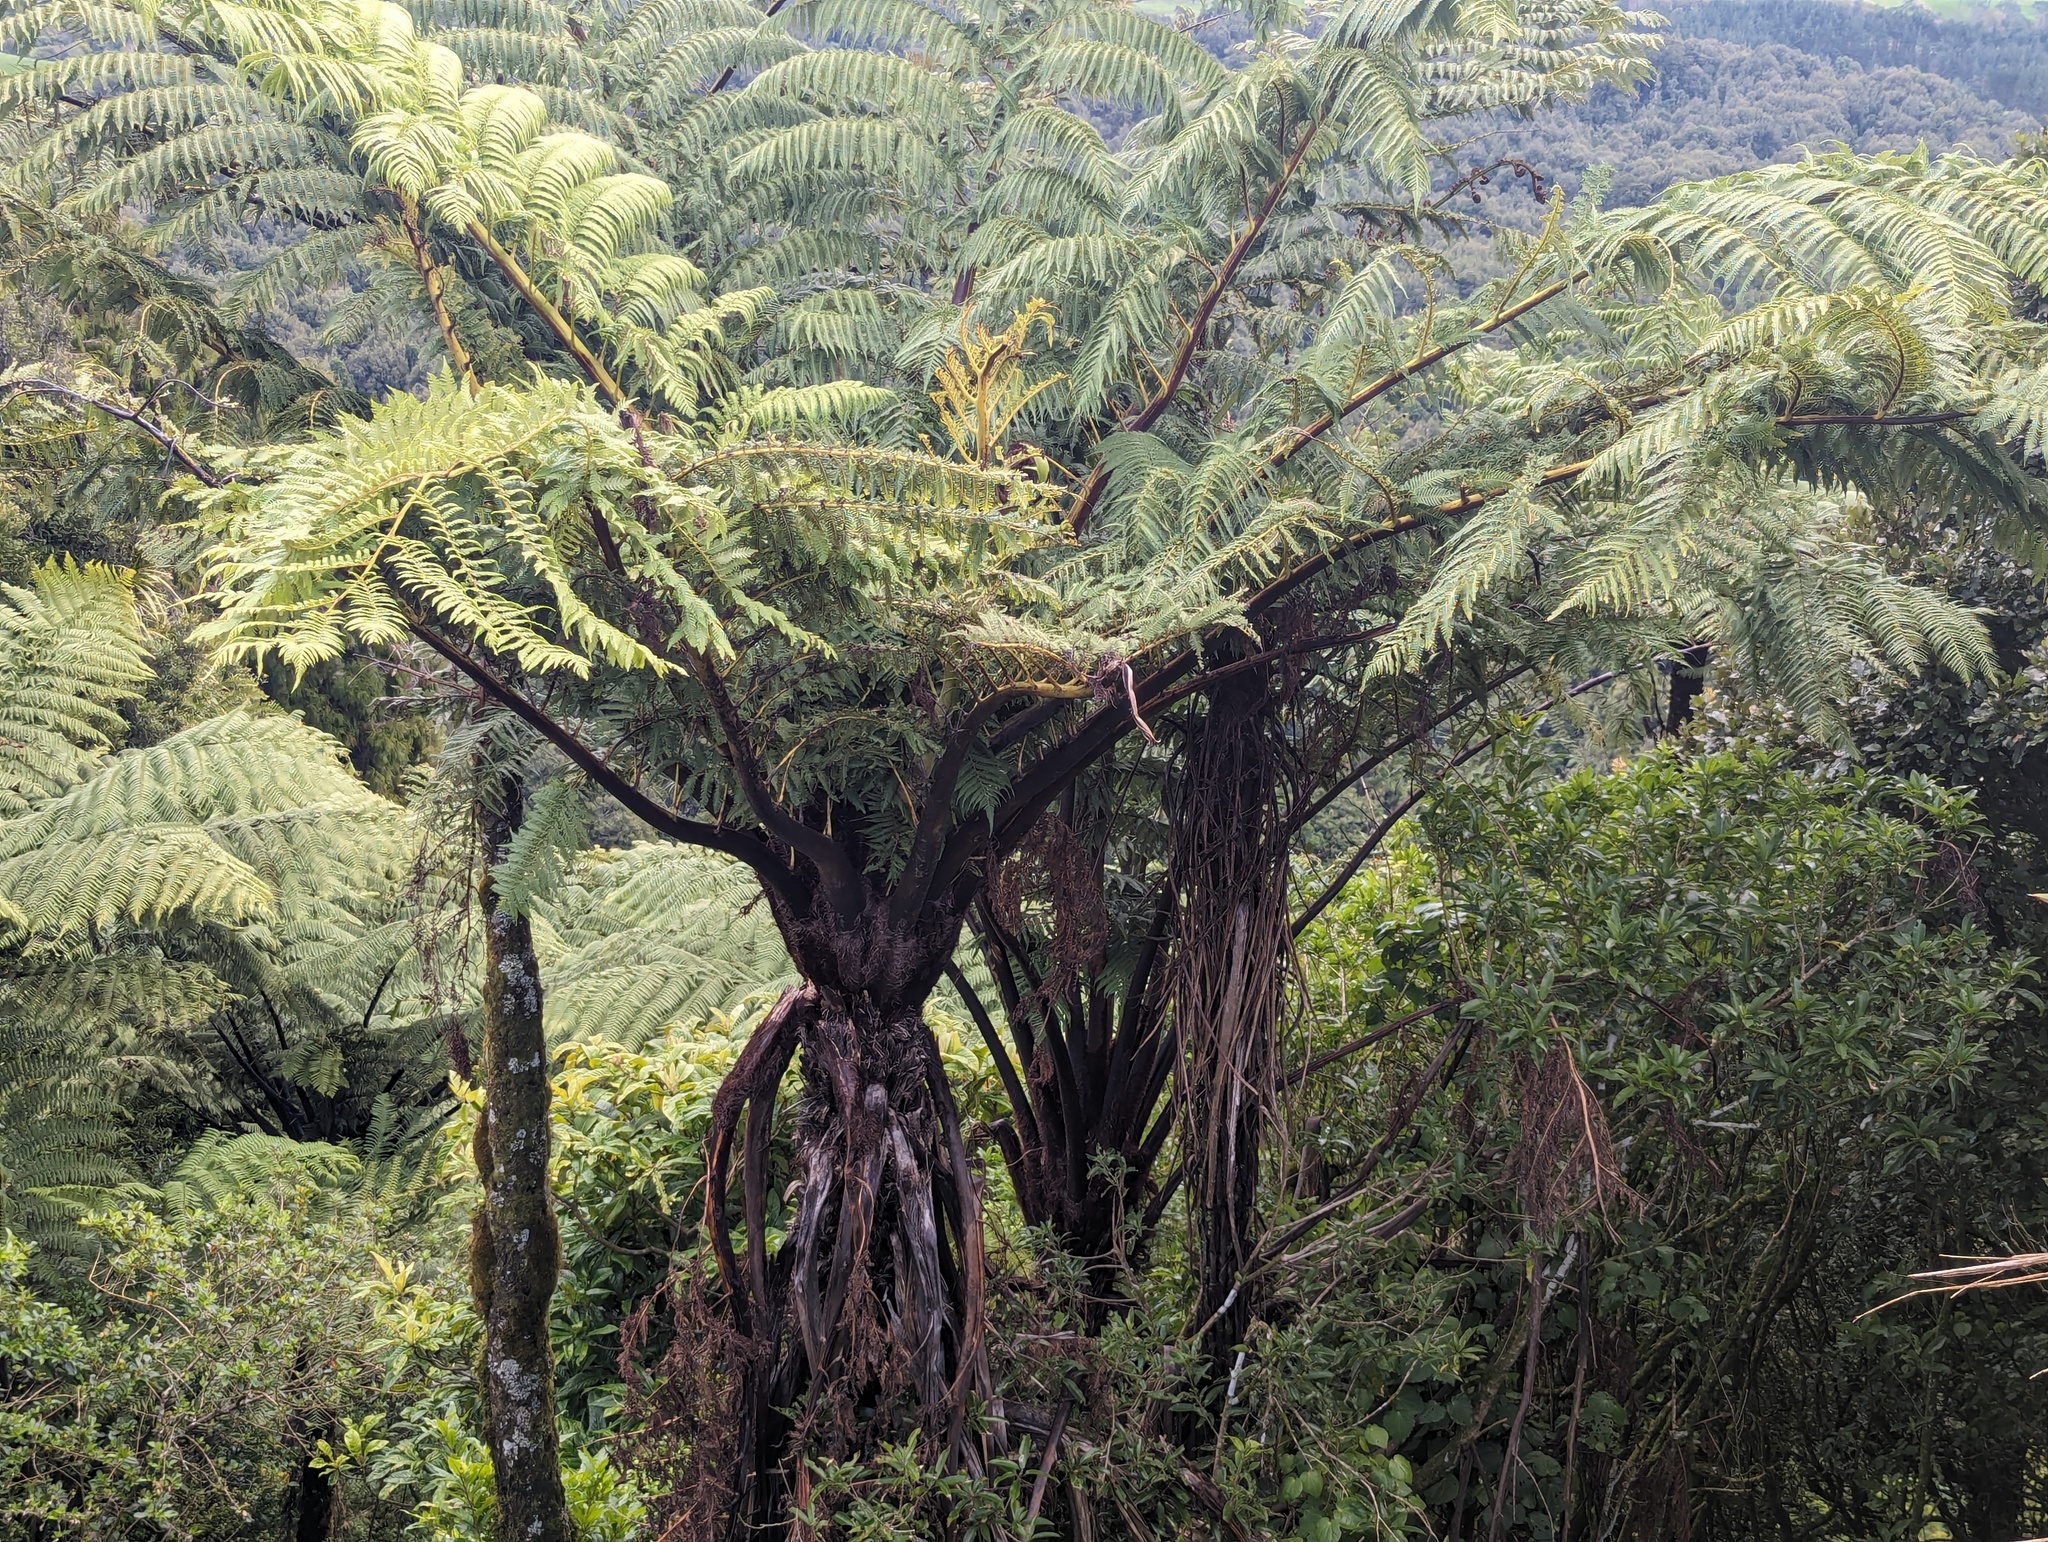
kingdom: Plantae
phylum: Tracheophyta
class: Polypodiopsida
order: Cyatheales
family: Cyatheaceae
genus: Sphaeropteris
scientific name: Sphaeropteris medullaris
